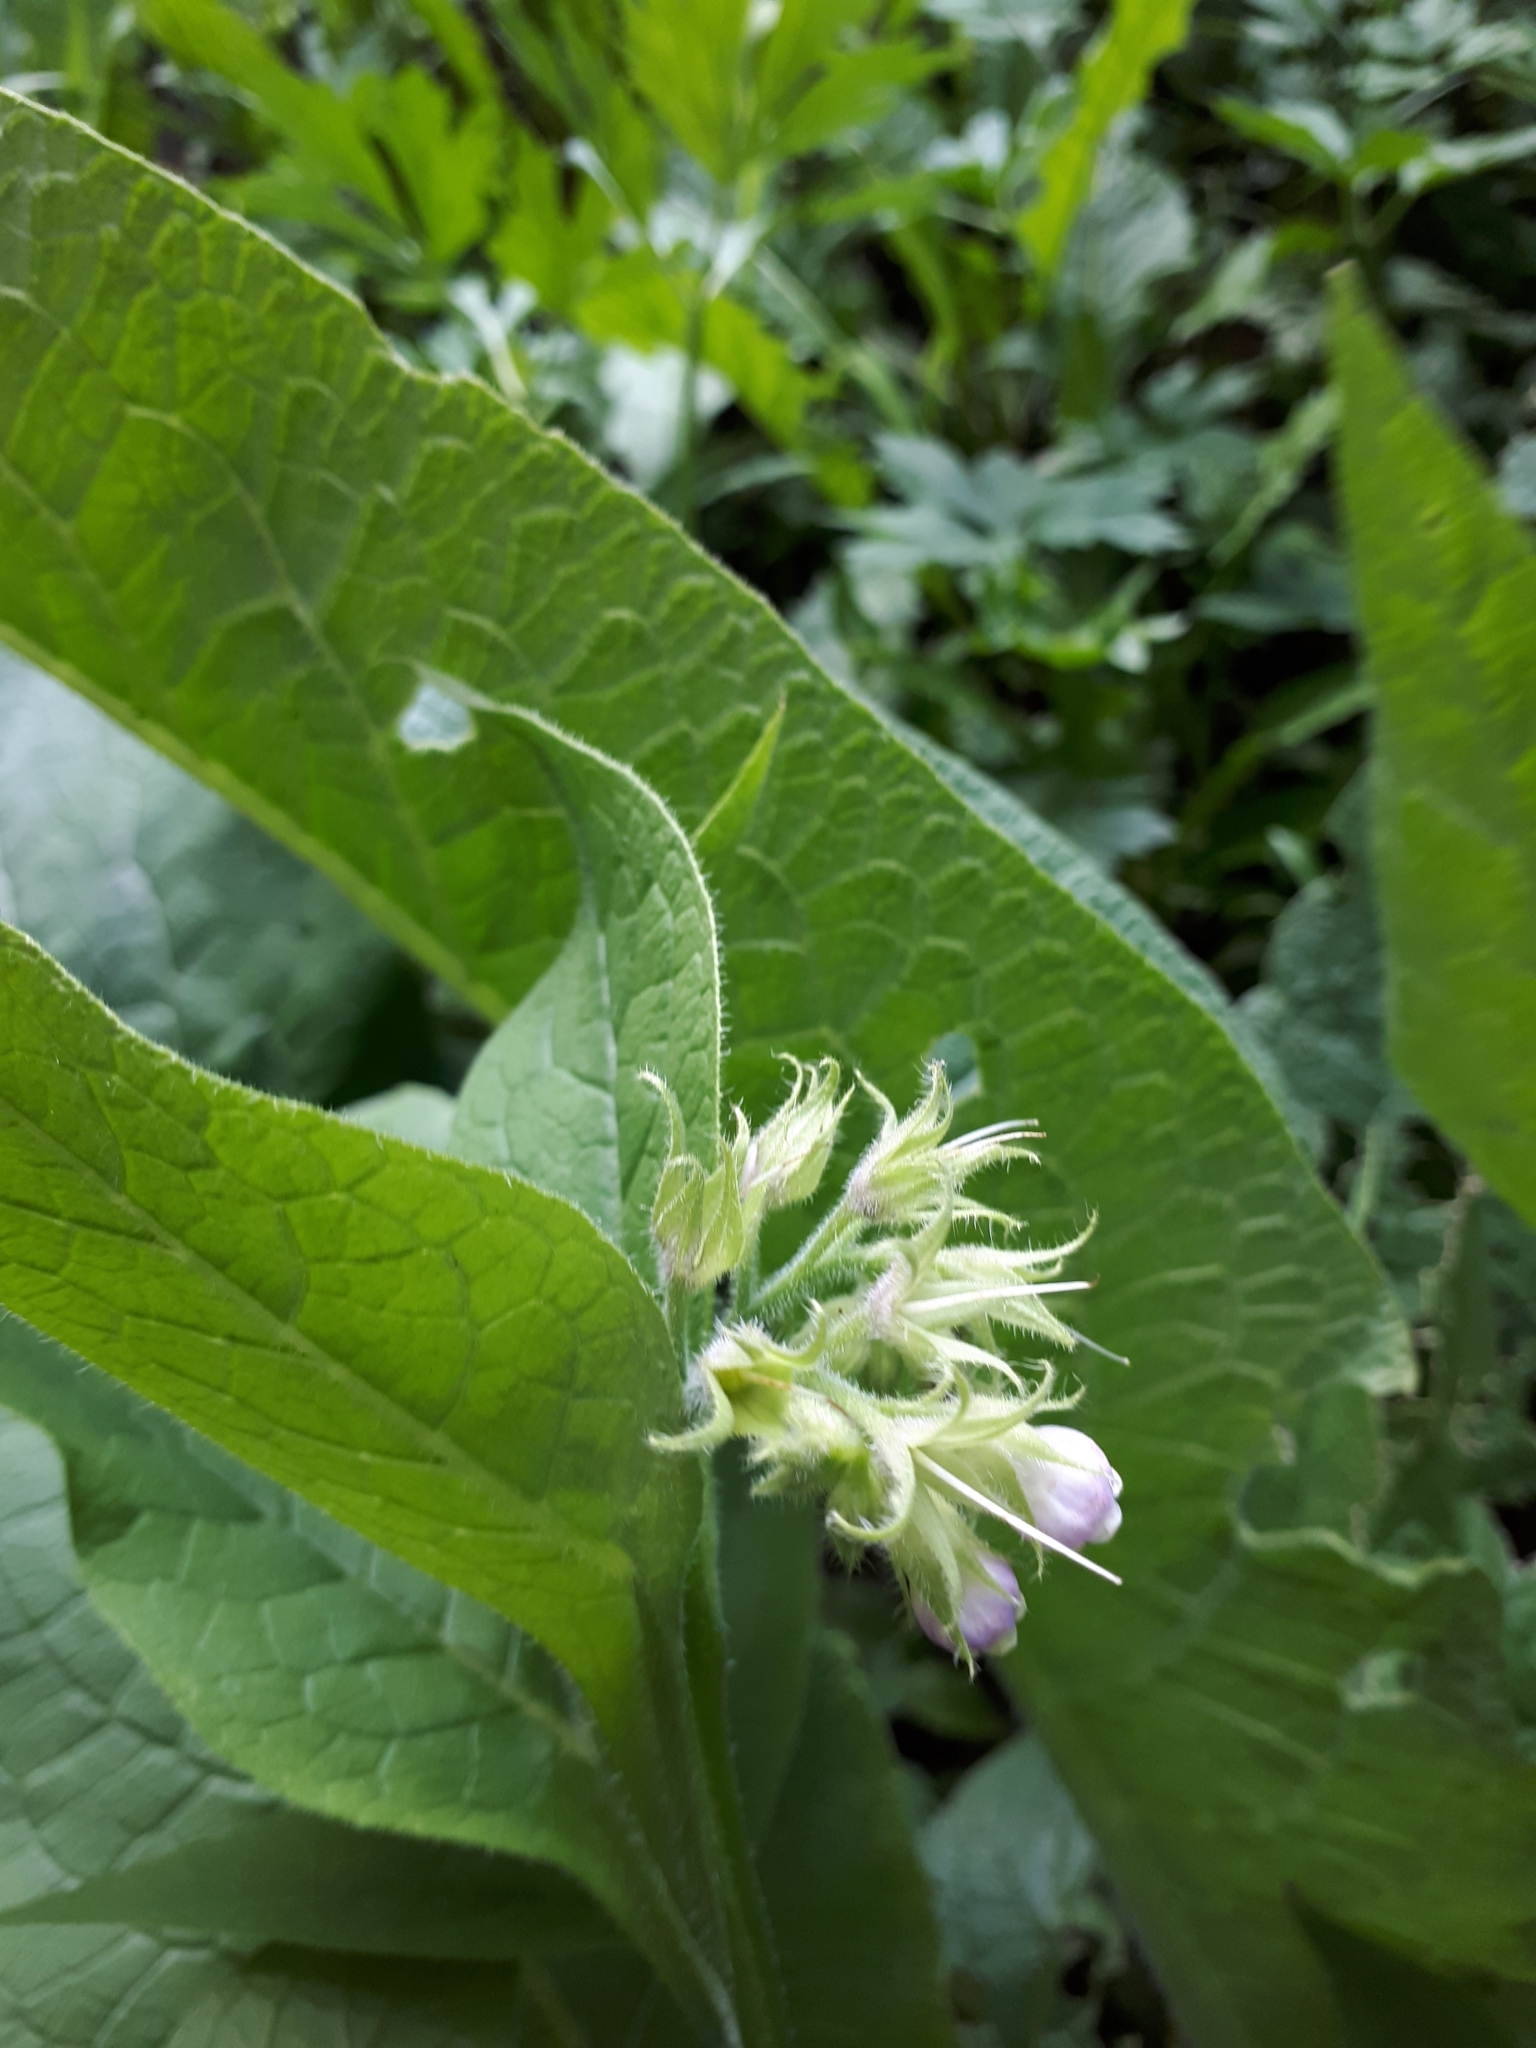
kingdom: Plantae
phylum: Tracheophyta
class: Magnoliopsida
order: Boraginales
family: Boraginaceae
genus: Symphytum
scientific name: Symphytum officinale
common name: Common comfrey
